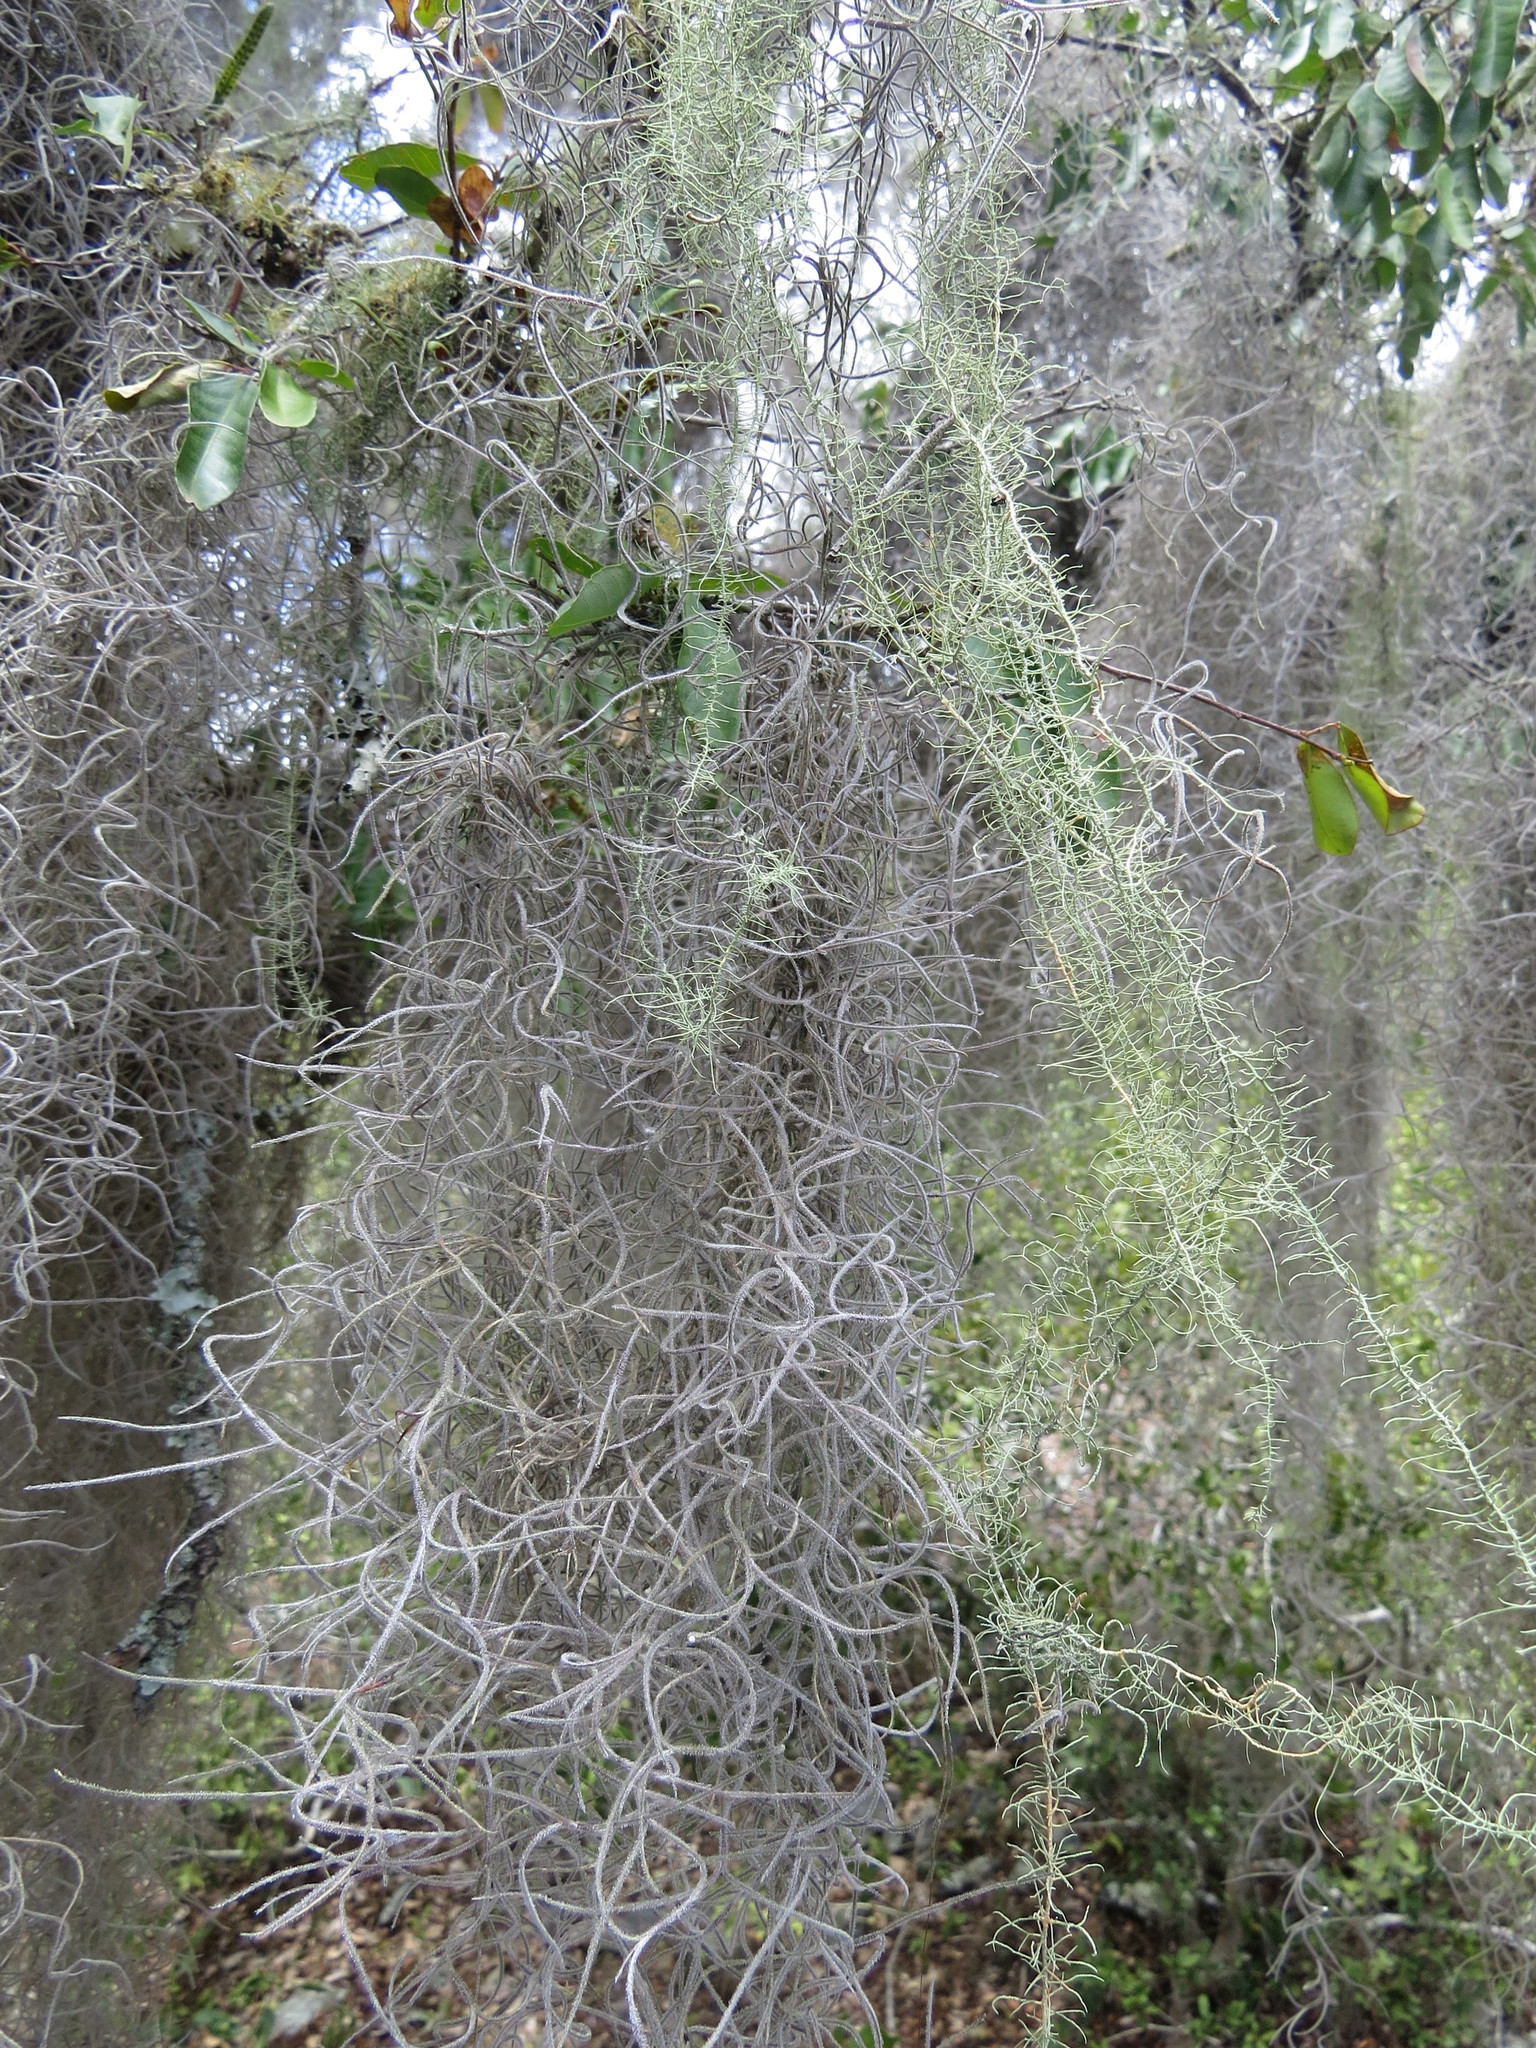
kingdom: Plantae
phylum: Tracheophyta
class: Liliopsida
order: Poales
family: Bromeliaceae
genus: Tillandsia
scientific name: Tillandsia usneoides
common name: Spanish moss
